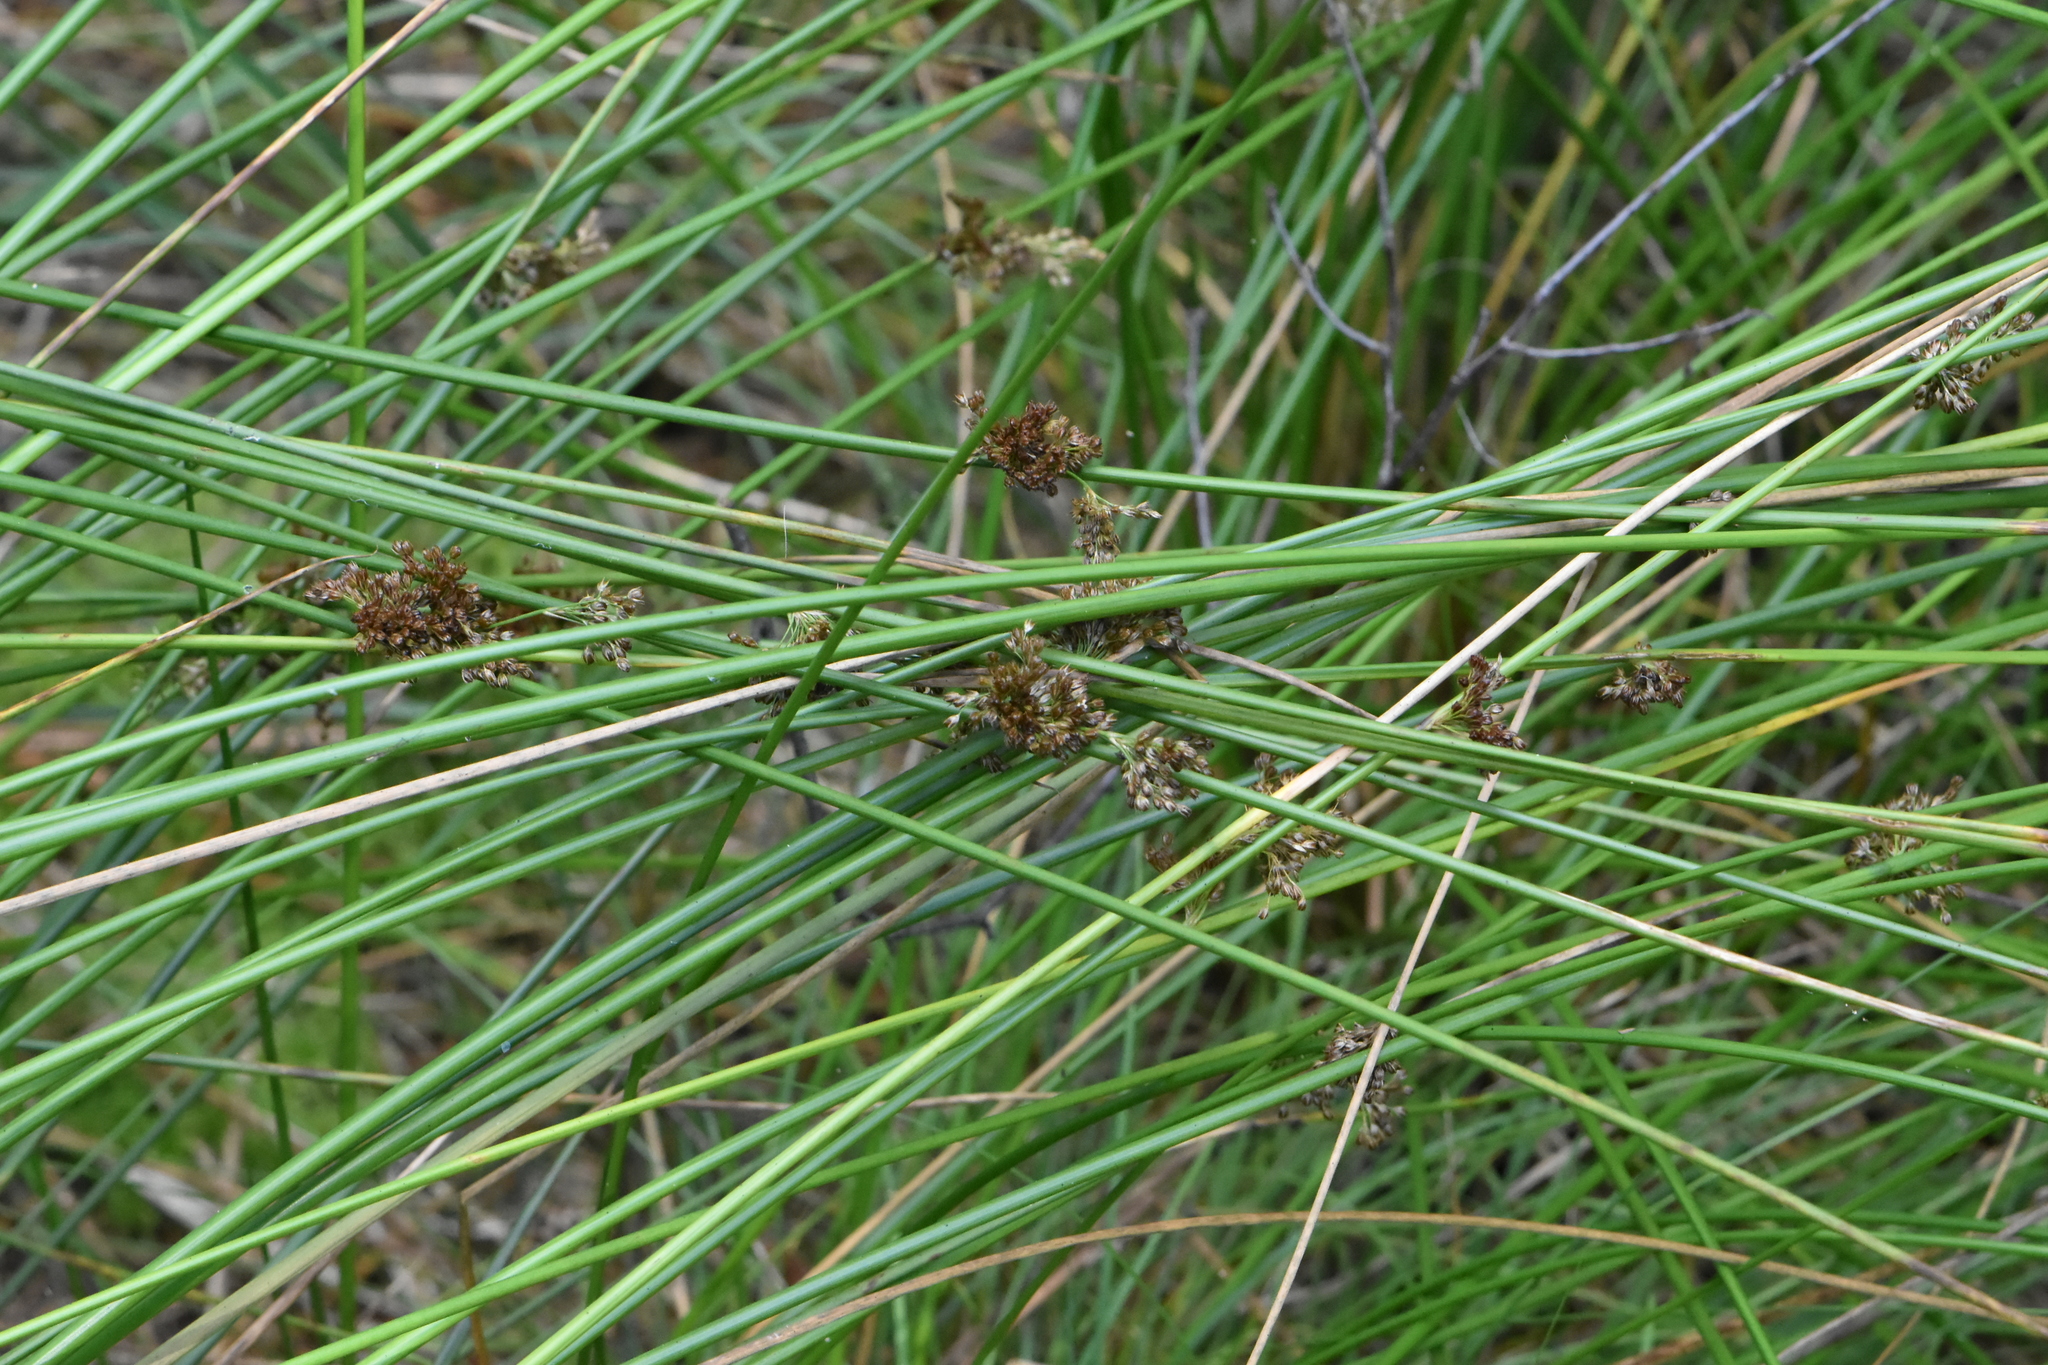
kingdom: Plantae
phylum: Tracheophyta
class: Liliopsida
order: Poales
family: Juncaceae
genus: Juncus
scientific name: Juncus effusus
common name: Soft rush
